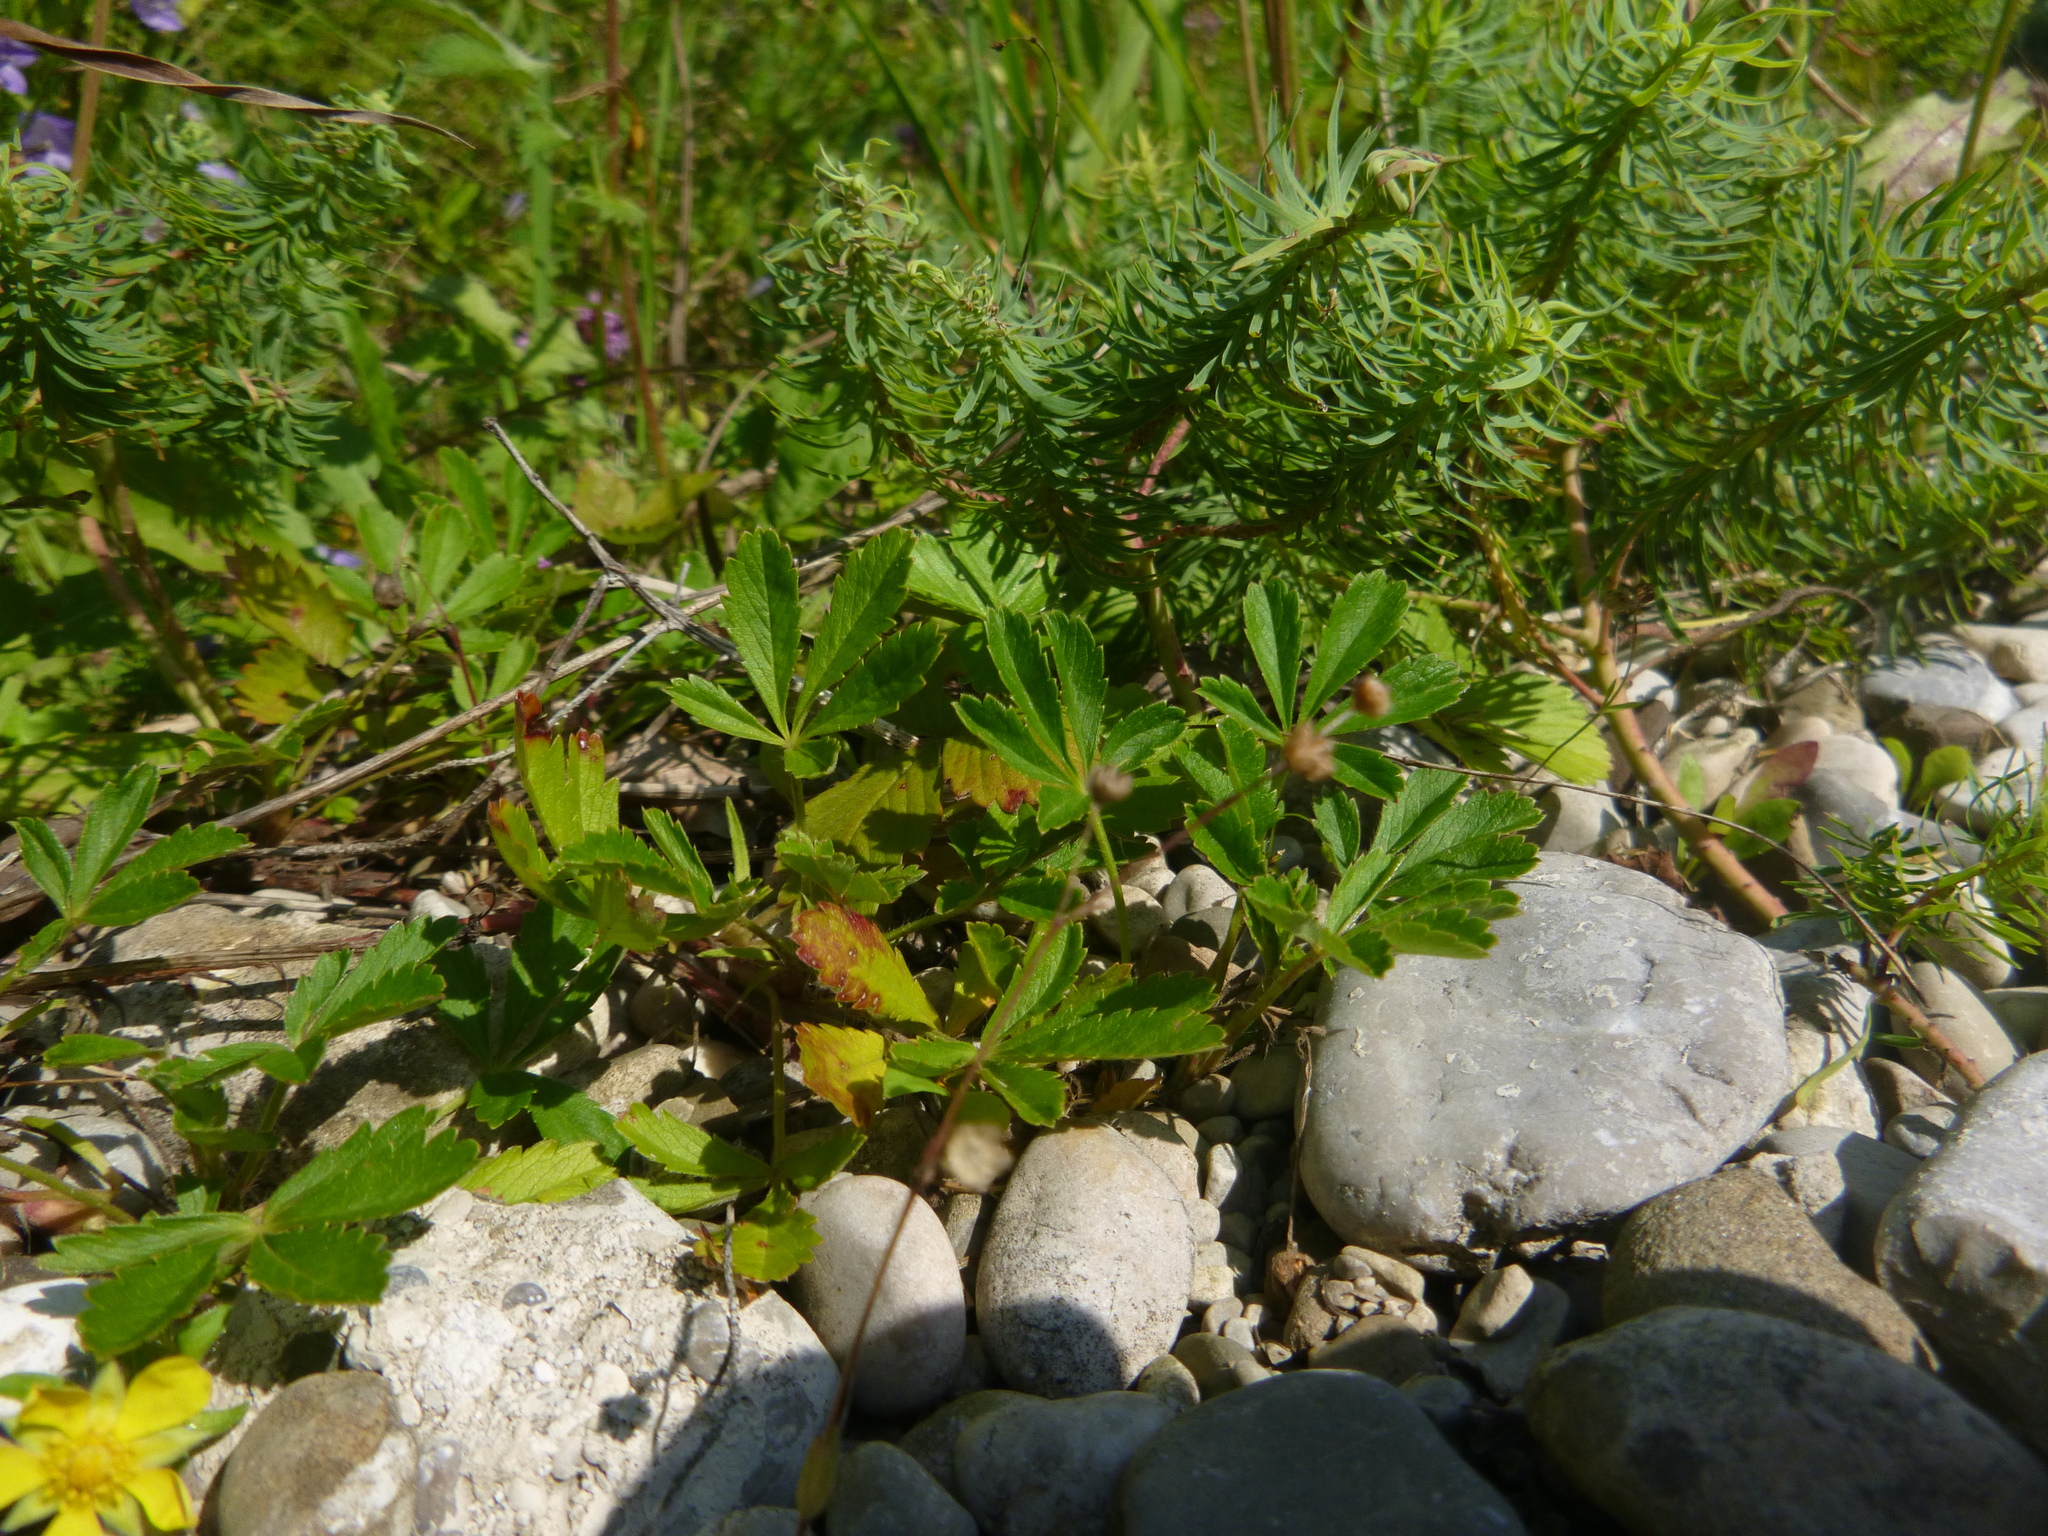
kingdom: Plantae
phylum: Tracheophyta
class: Magnoliopsida
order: Rosales
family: Rosaceae
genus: Potentilla
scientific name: Potentilla reptans
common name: Creeping cinquefoil
